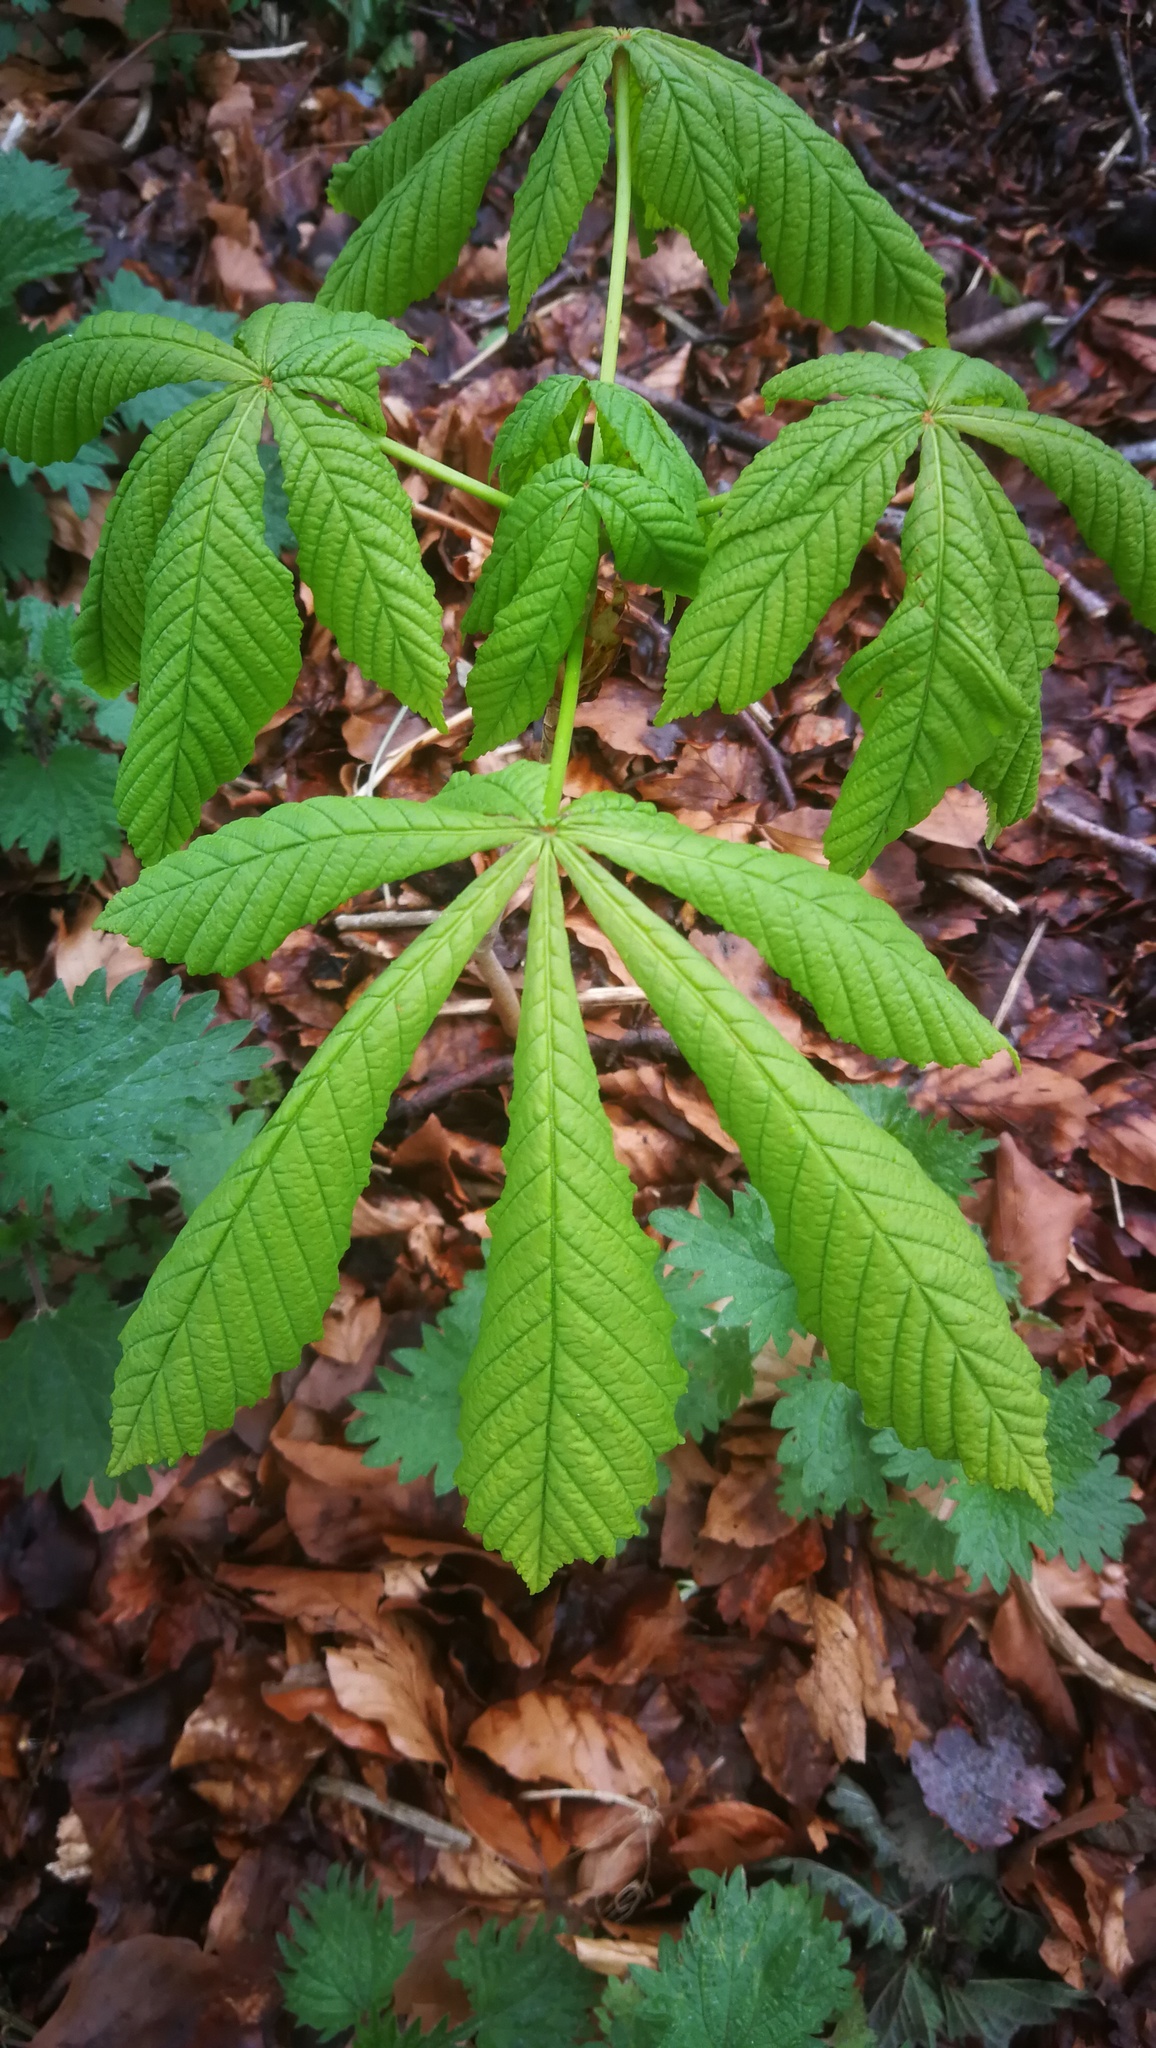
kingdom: Plantae
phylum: Tracheophyta
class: Magnoliopsida
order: Sapindales
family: Sapindaceae
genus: Aesculus
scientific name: Aesculus hippocastanum
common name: Horse-chestnut
